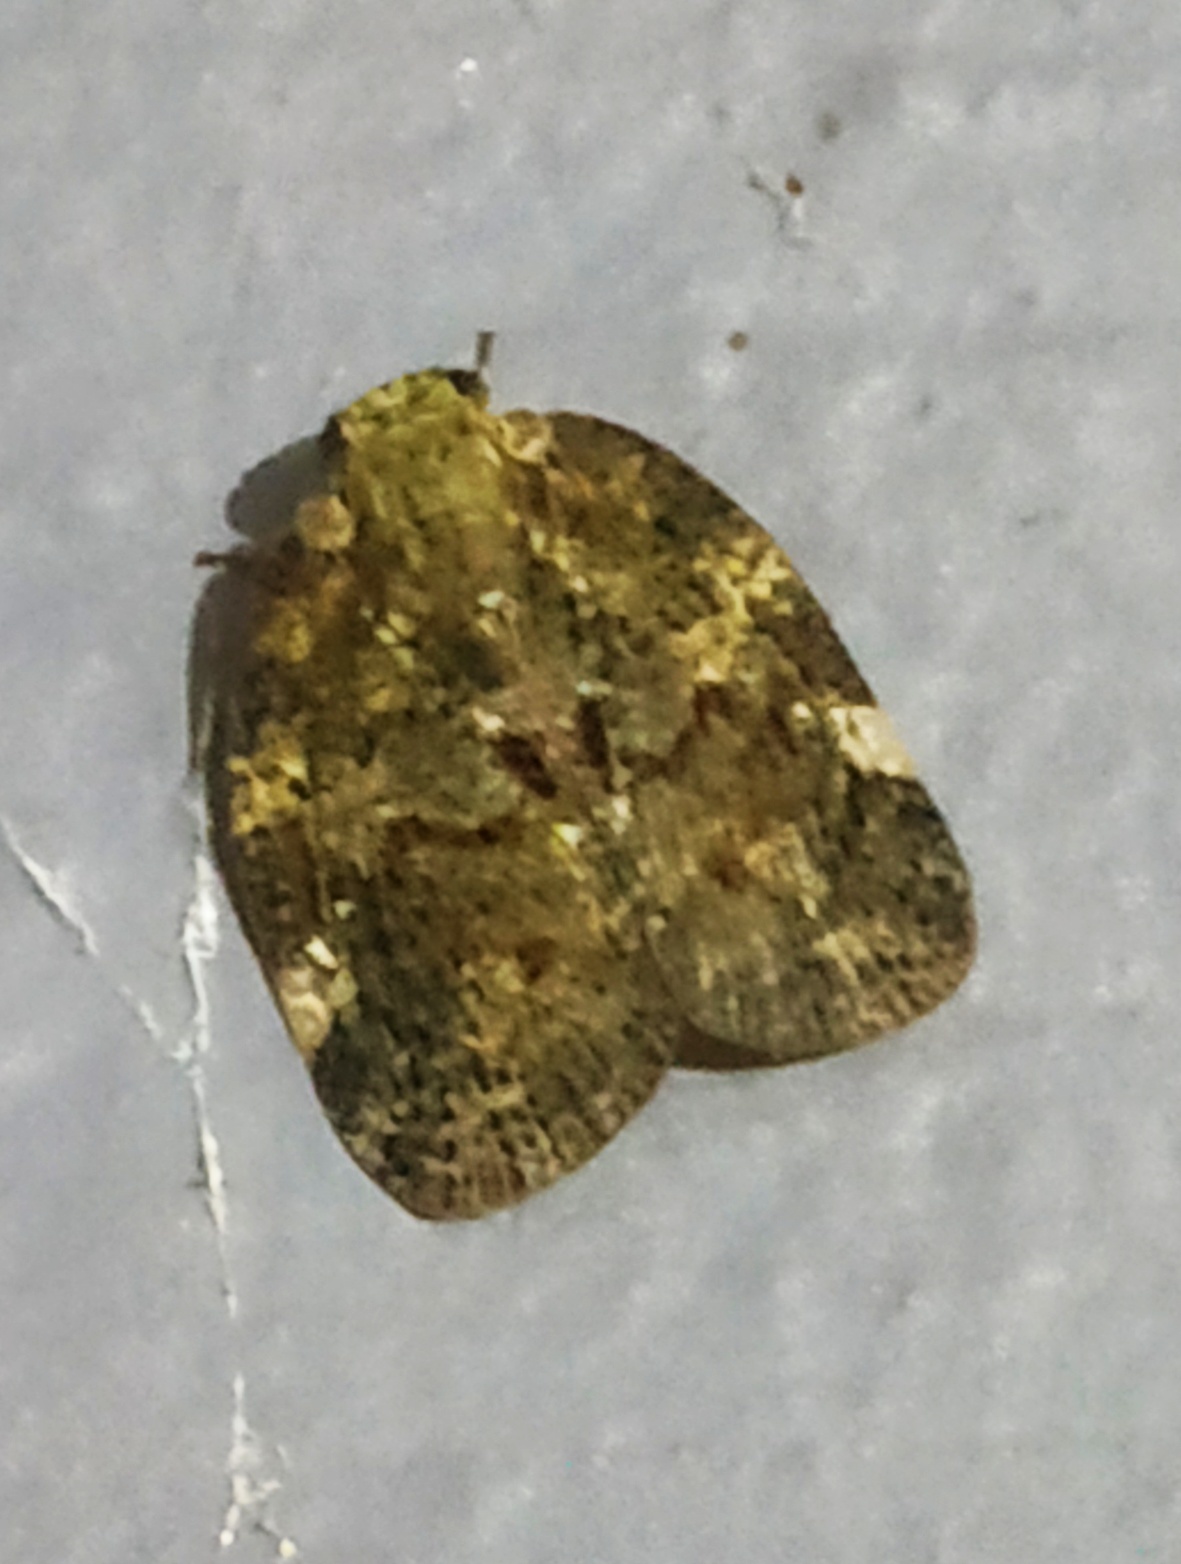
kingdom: Animalia
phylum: Arthropoda
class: Insecta
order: Hemiptera
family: Ricaniidae
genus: Aprivesa
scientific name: Aprivesa unimaculata
